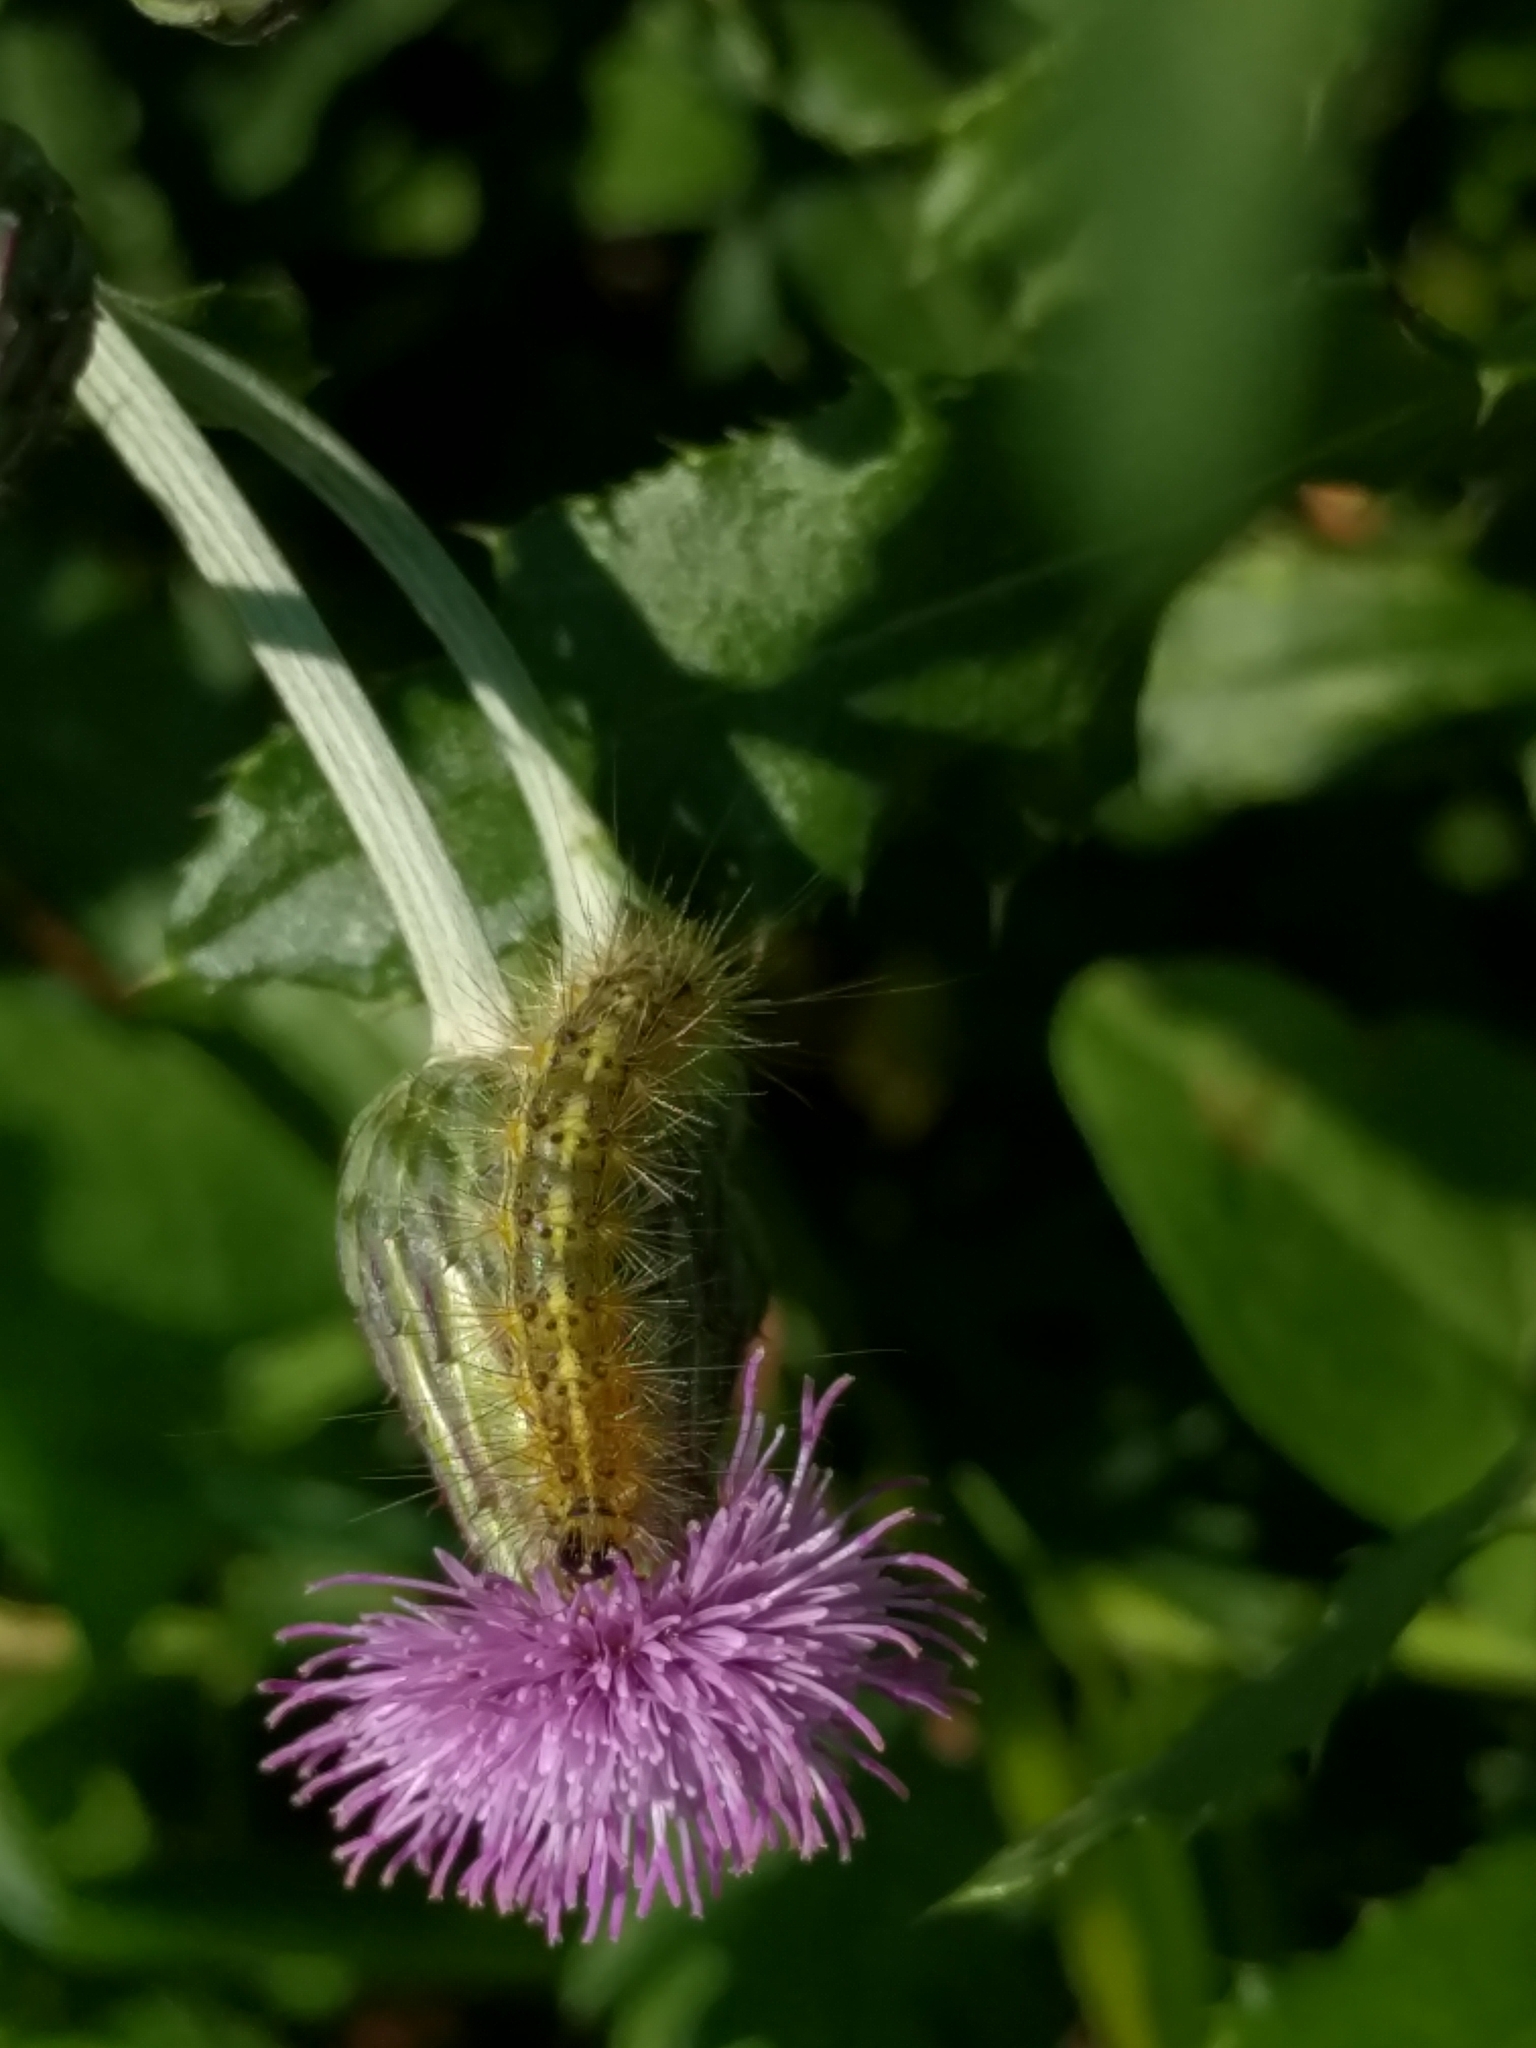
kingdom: Animalia
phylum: Arthropoda
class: Insecta
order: Lepidoptera
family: Erebidae
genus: Estigmene
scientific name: Estigmene acrea
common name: Salt marsh moth
